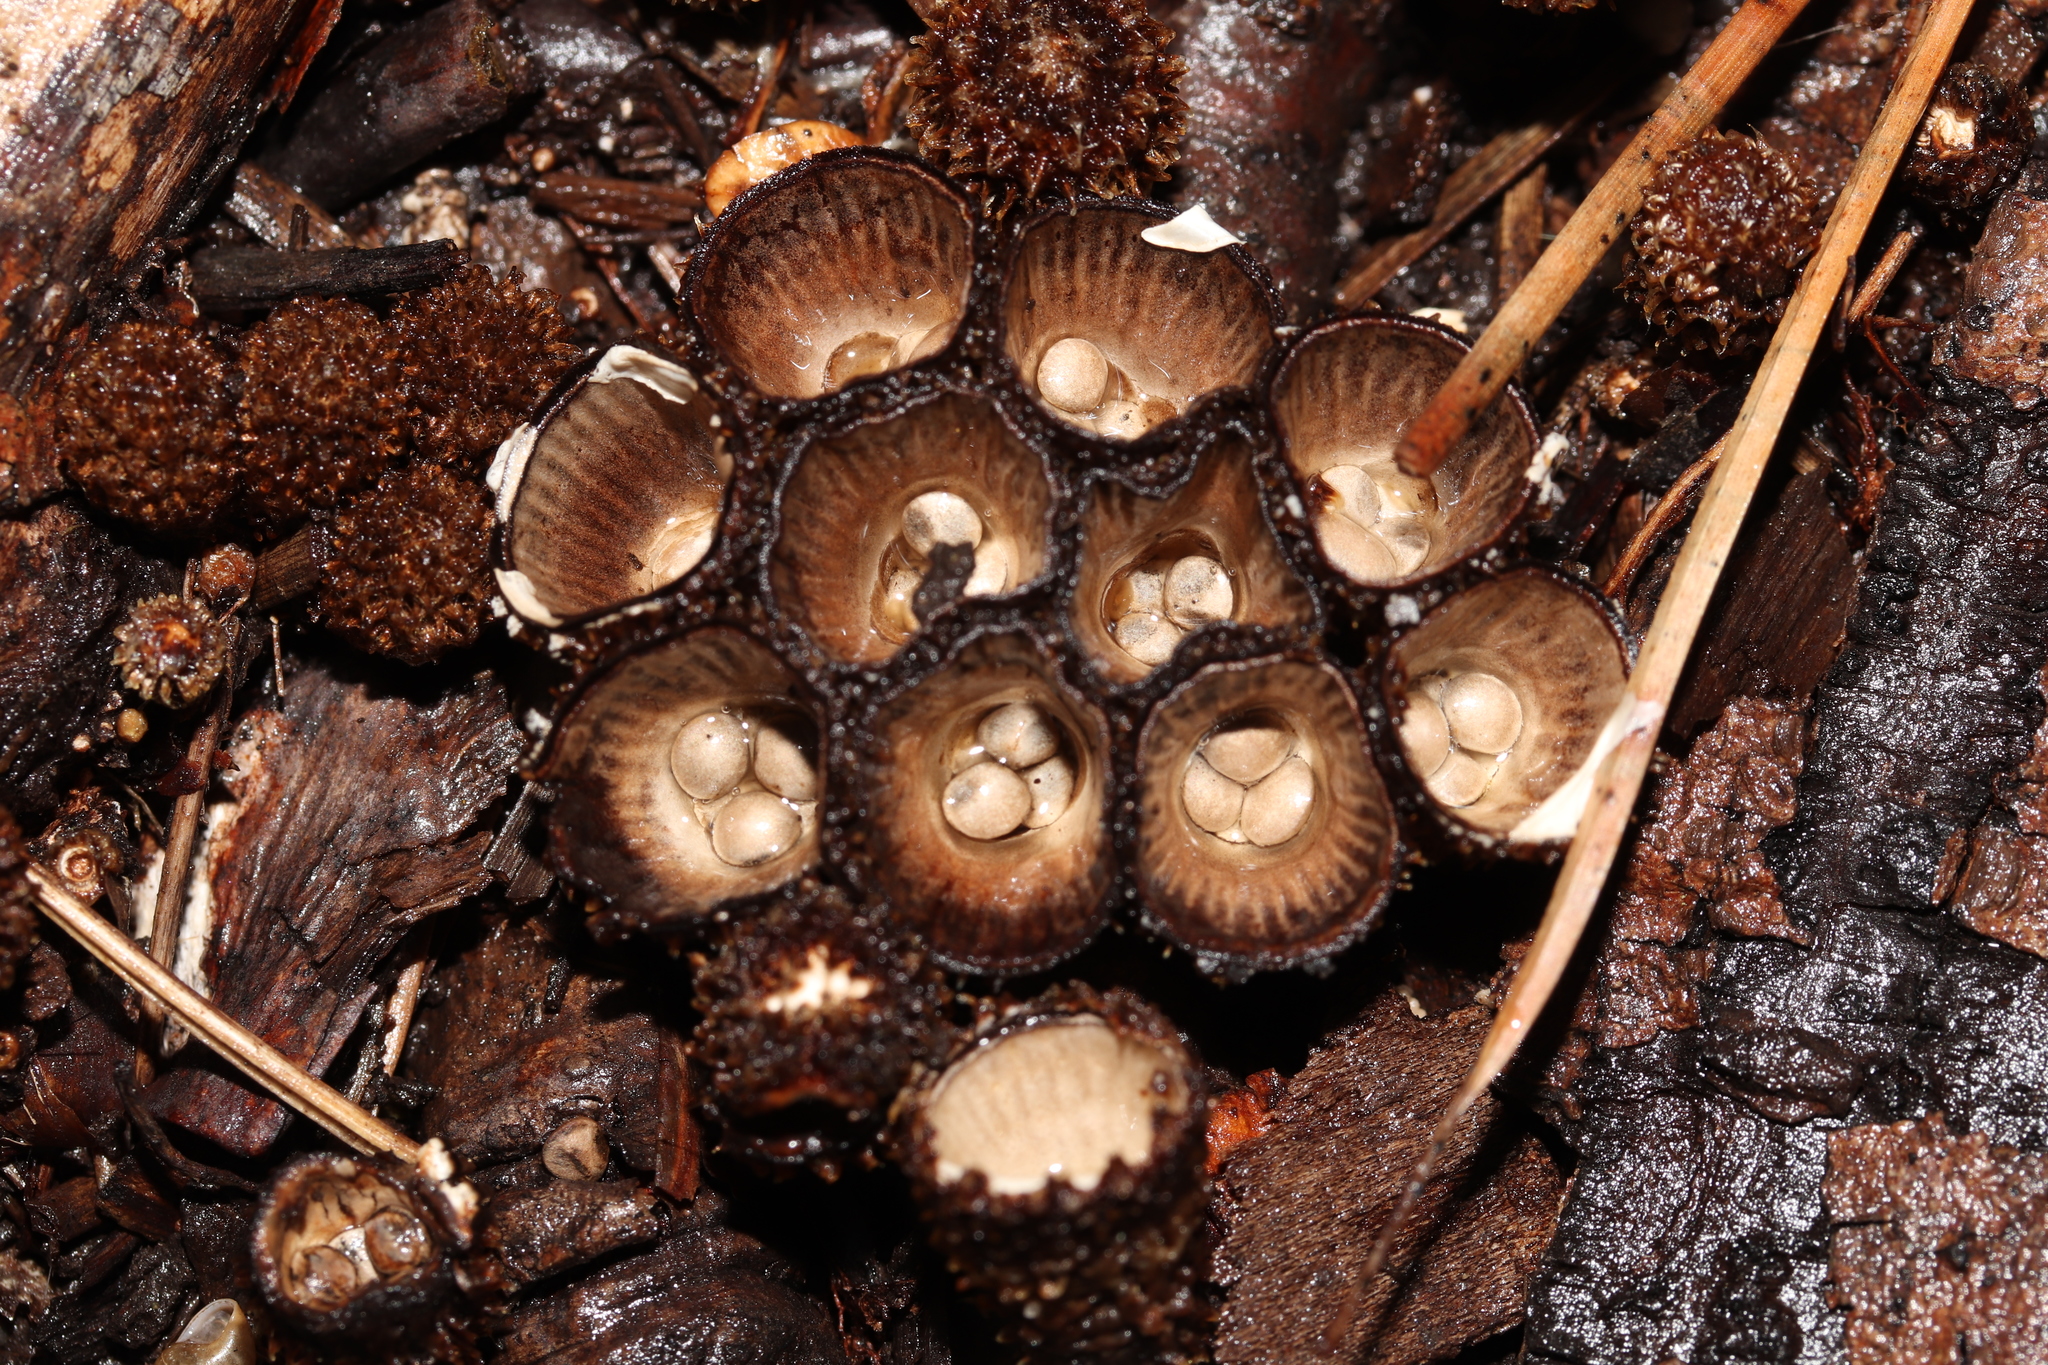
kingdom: Fungi
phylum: Basidiomycota
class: Agaricomycetes
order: Agaricales
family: Agaricaceae
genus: Cyathus
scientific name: Cyathus striatus
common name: Fluted bird's nest
